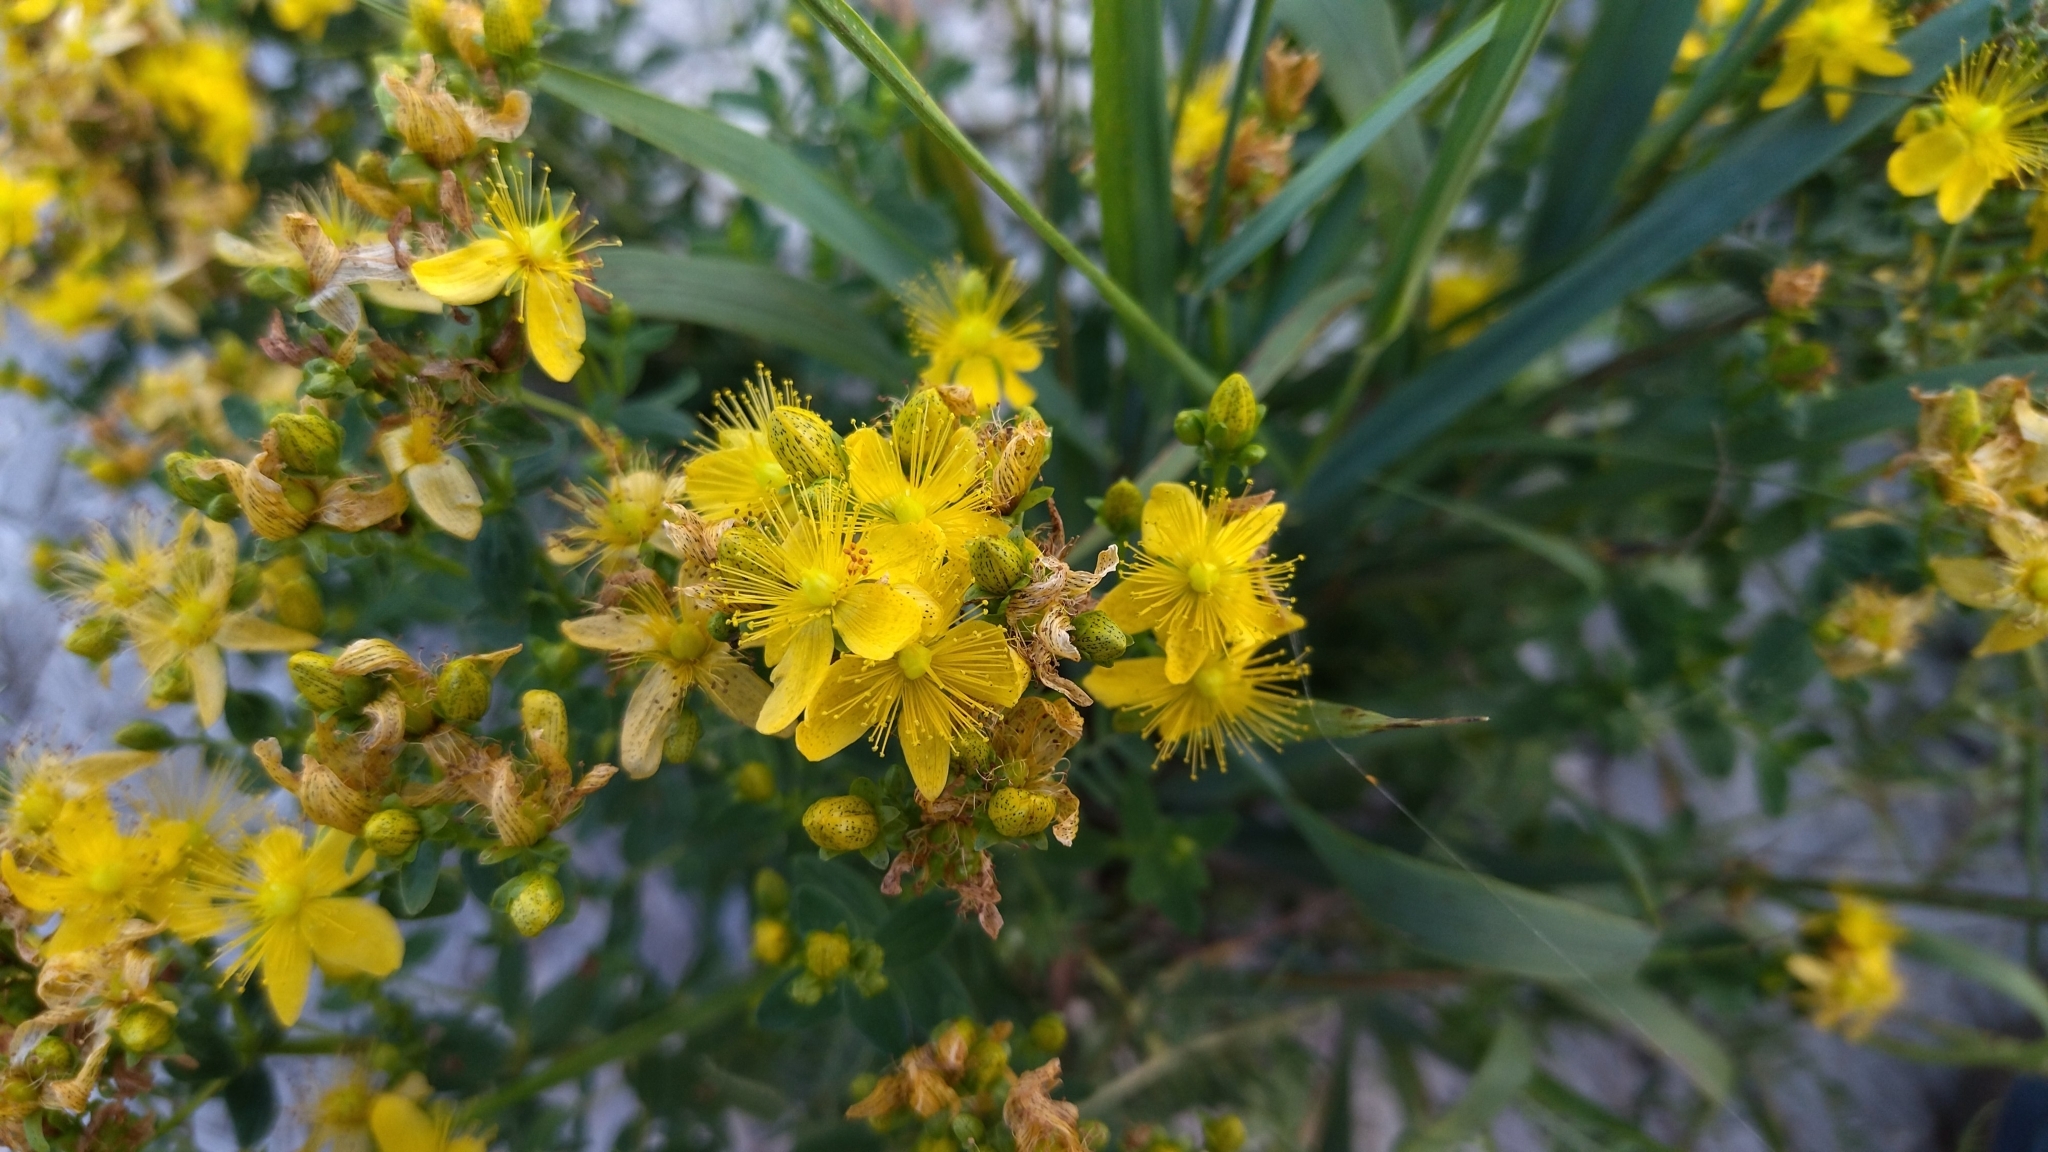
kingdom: Plantae
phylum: Tracheophyta
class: Magnoliopsida
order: Malpighiales
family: Hypericaceae
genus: Hypericum
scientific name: Hypericum maculatum
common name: Imperforate st. john's-wort
